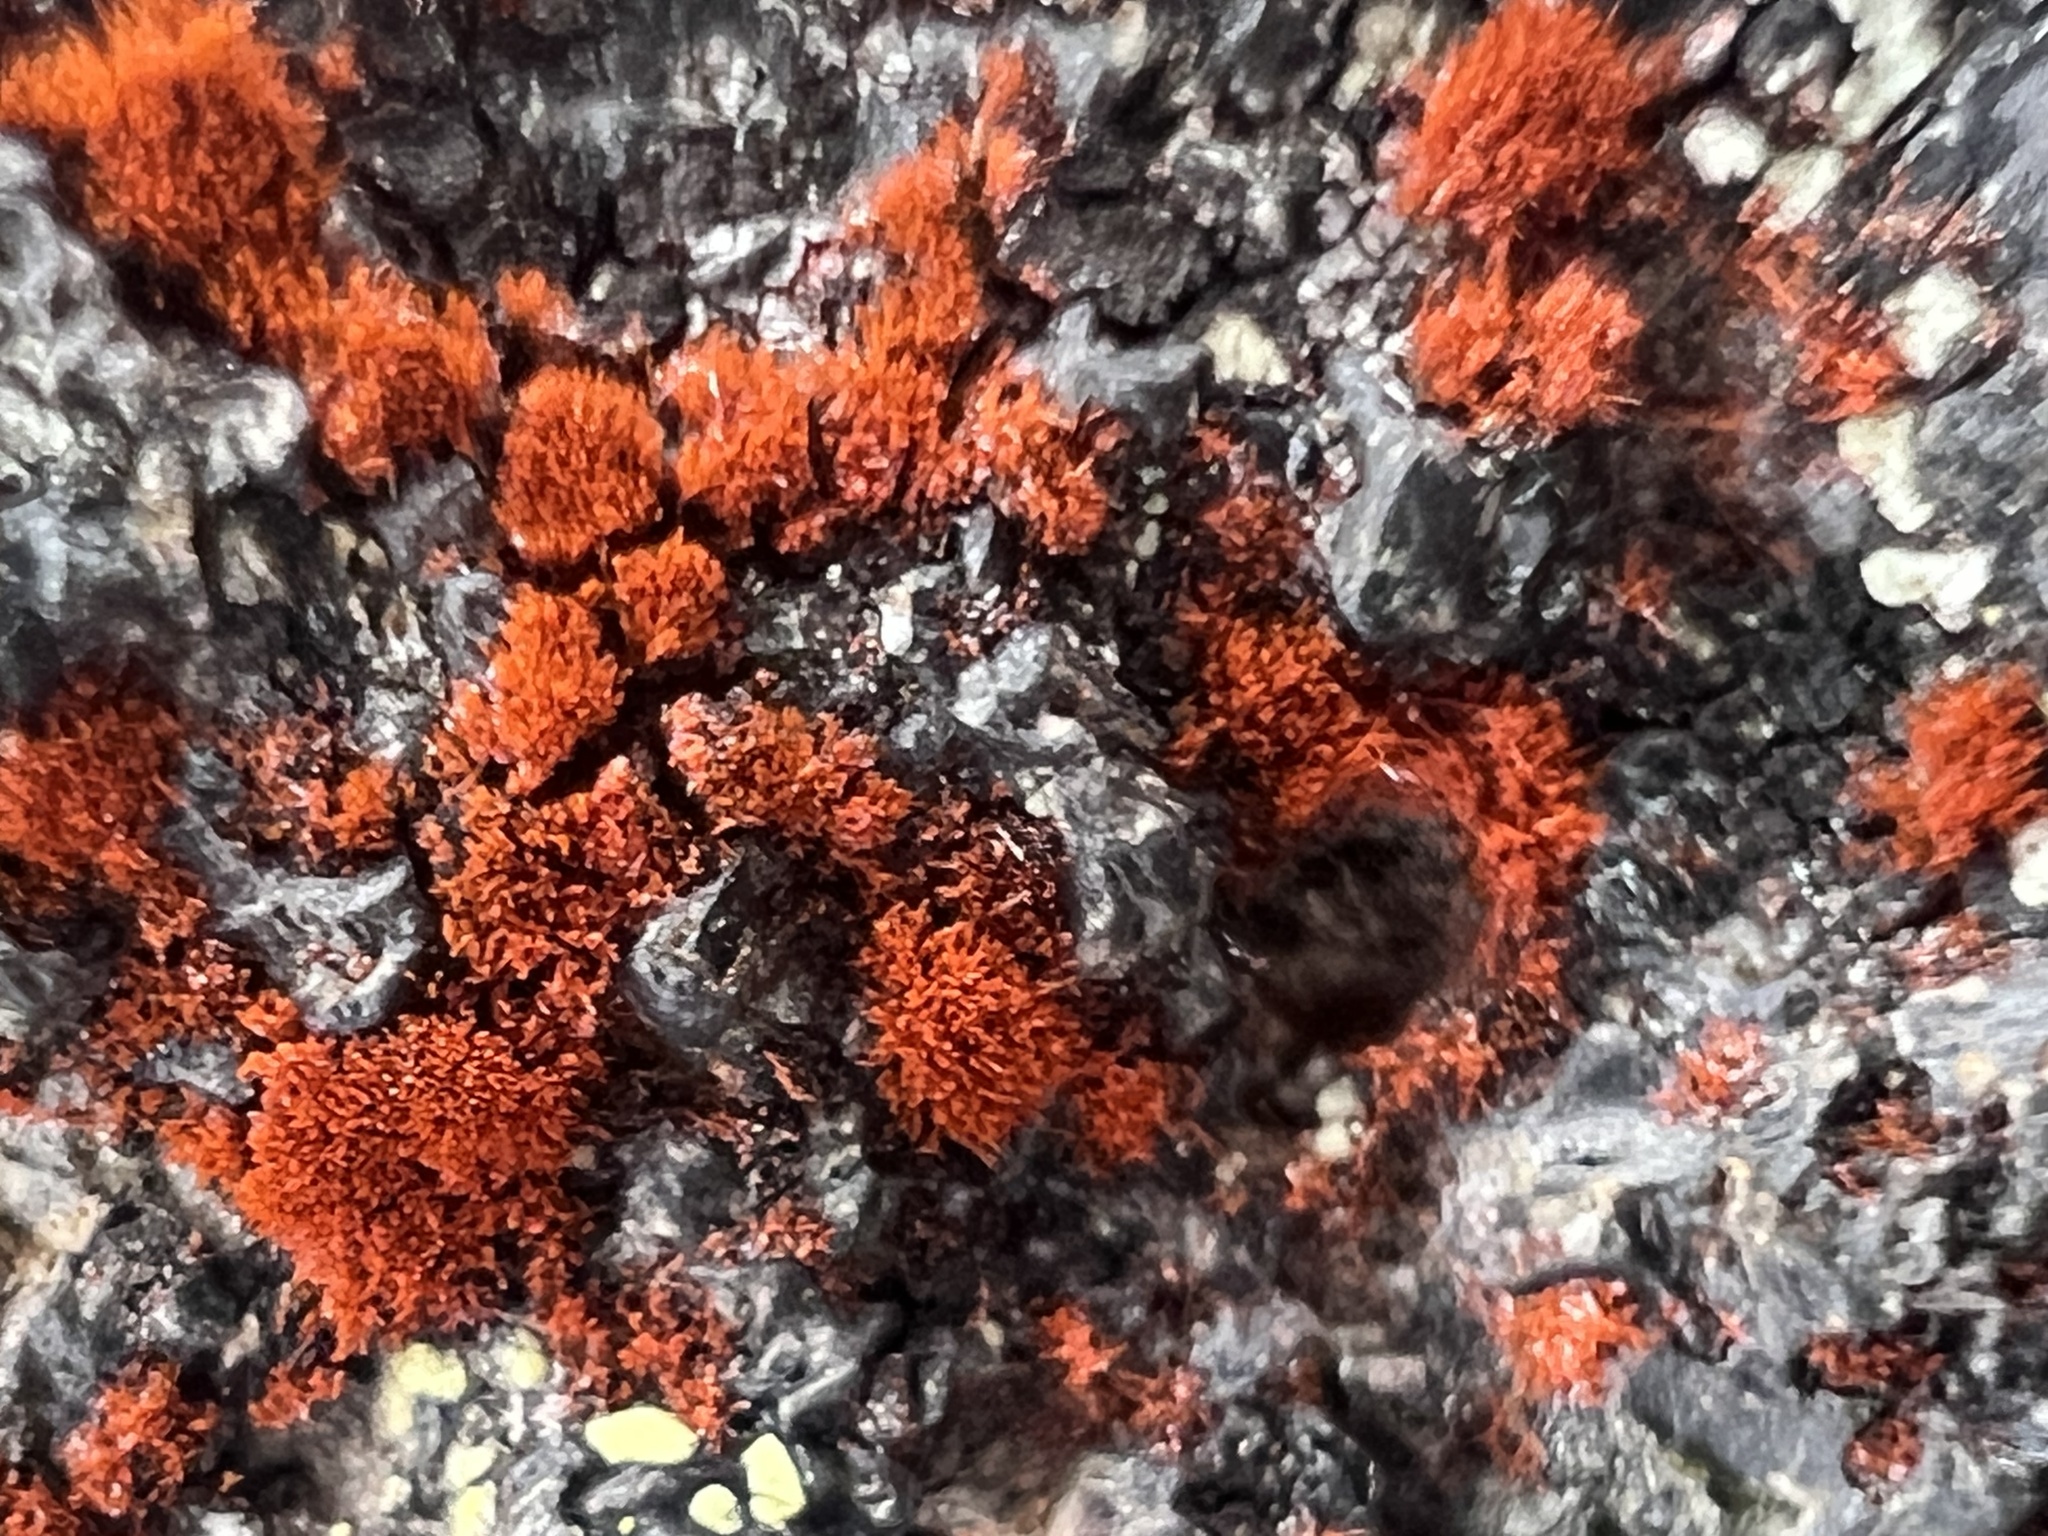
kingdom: Plantae
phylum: Chlorophyta
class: Ulvophyceae
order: Trentepohliales
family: Trentepohliaceae
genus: Trentepohlia
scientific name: Trentepohlia aurea
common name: Orange rock hair
